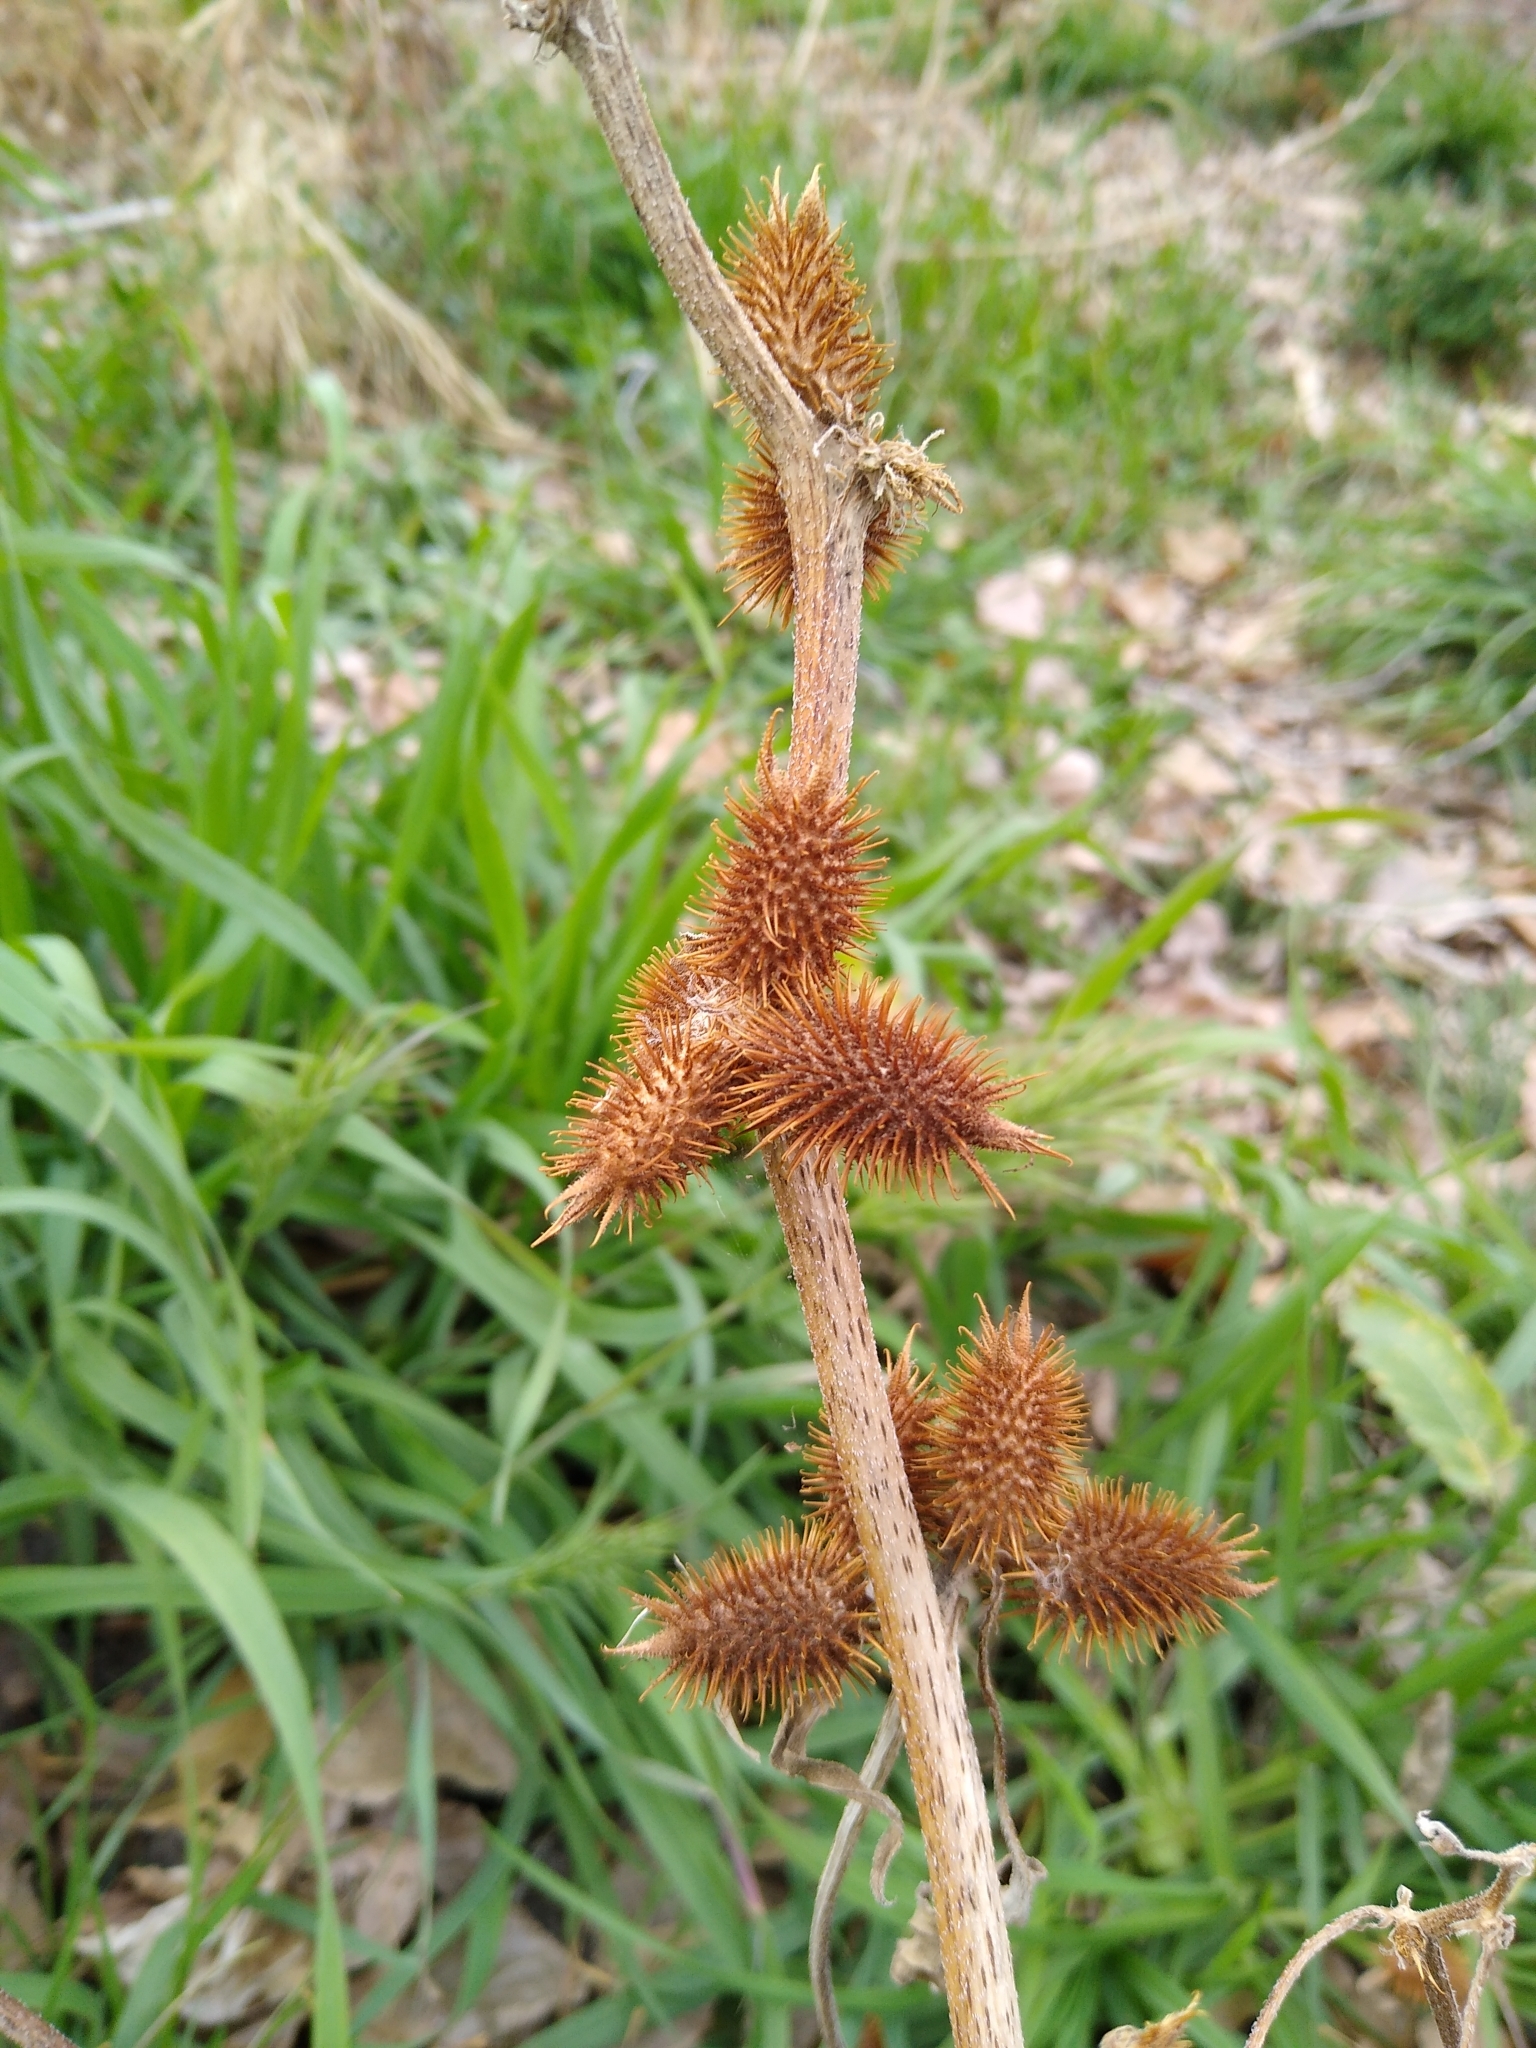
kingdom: Plantae
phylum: Tracheophyta
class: Magnoliopsida
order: Asterales
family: Asteraceae
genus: Xanthium
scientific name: Xanthium strumarium
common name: Rough cocklebur
